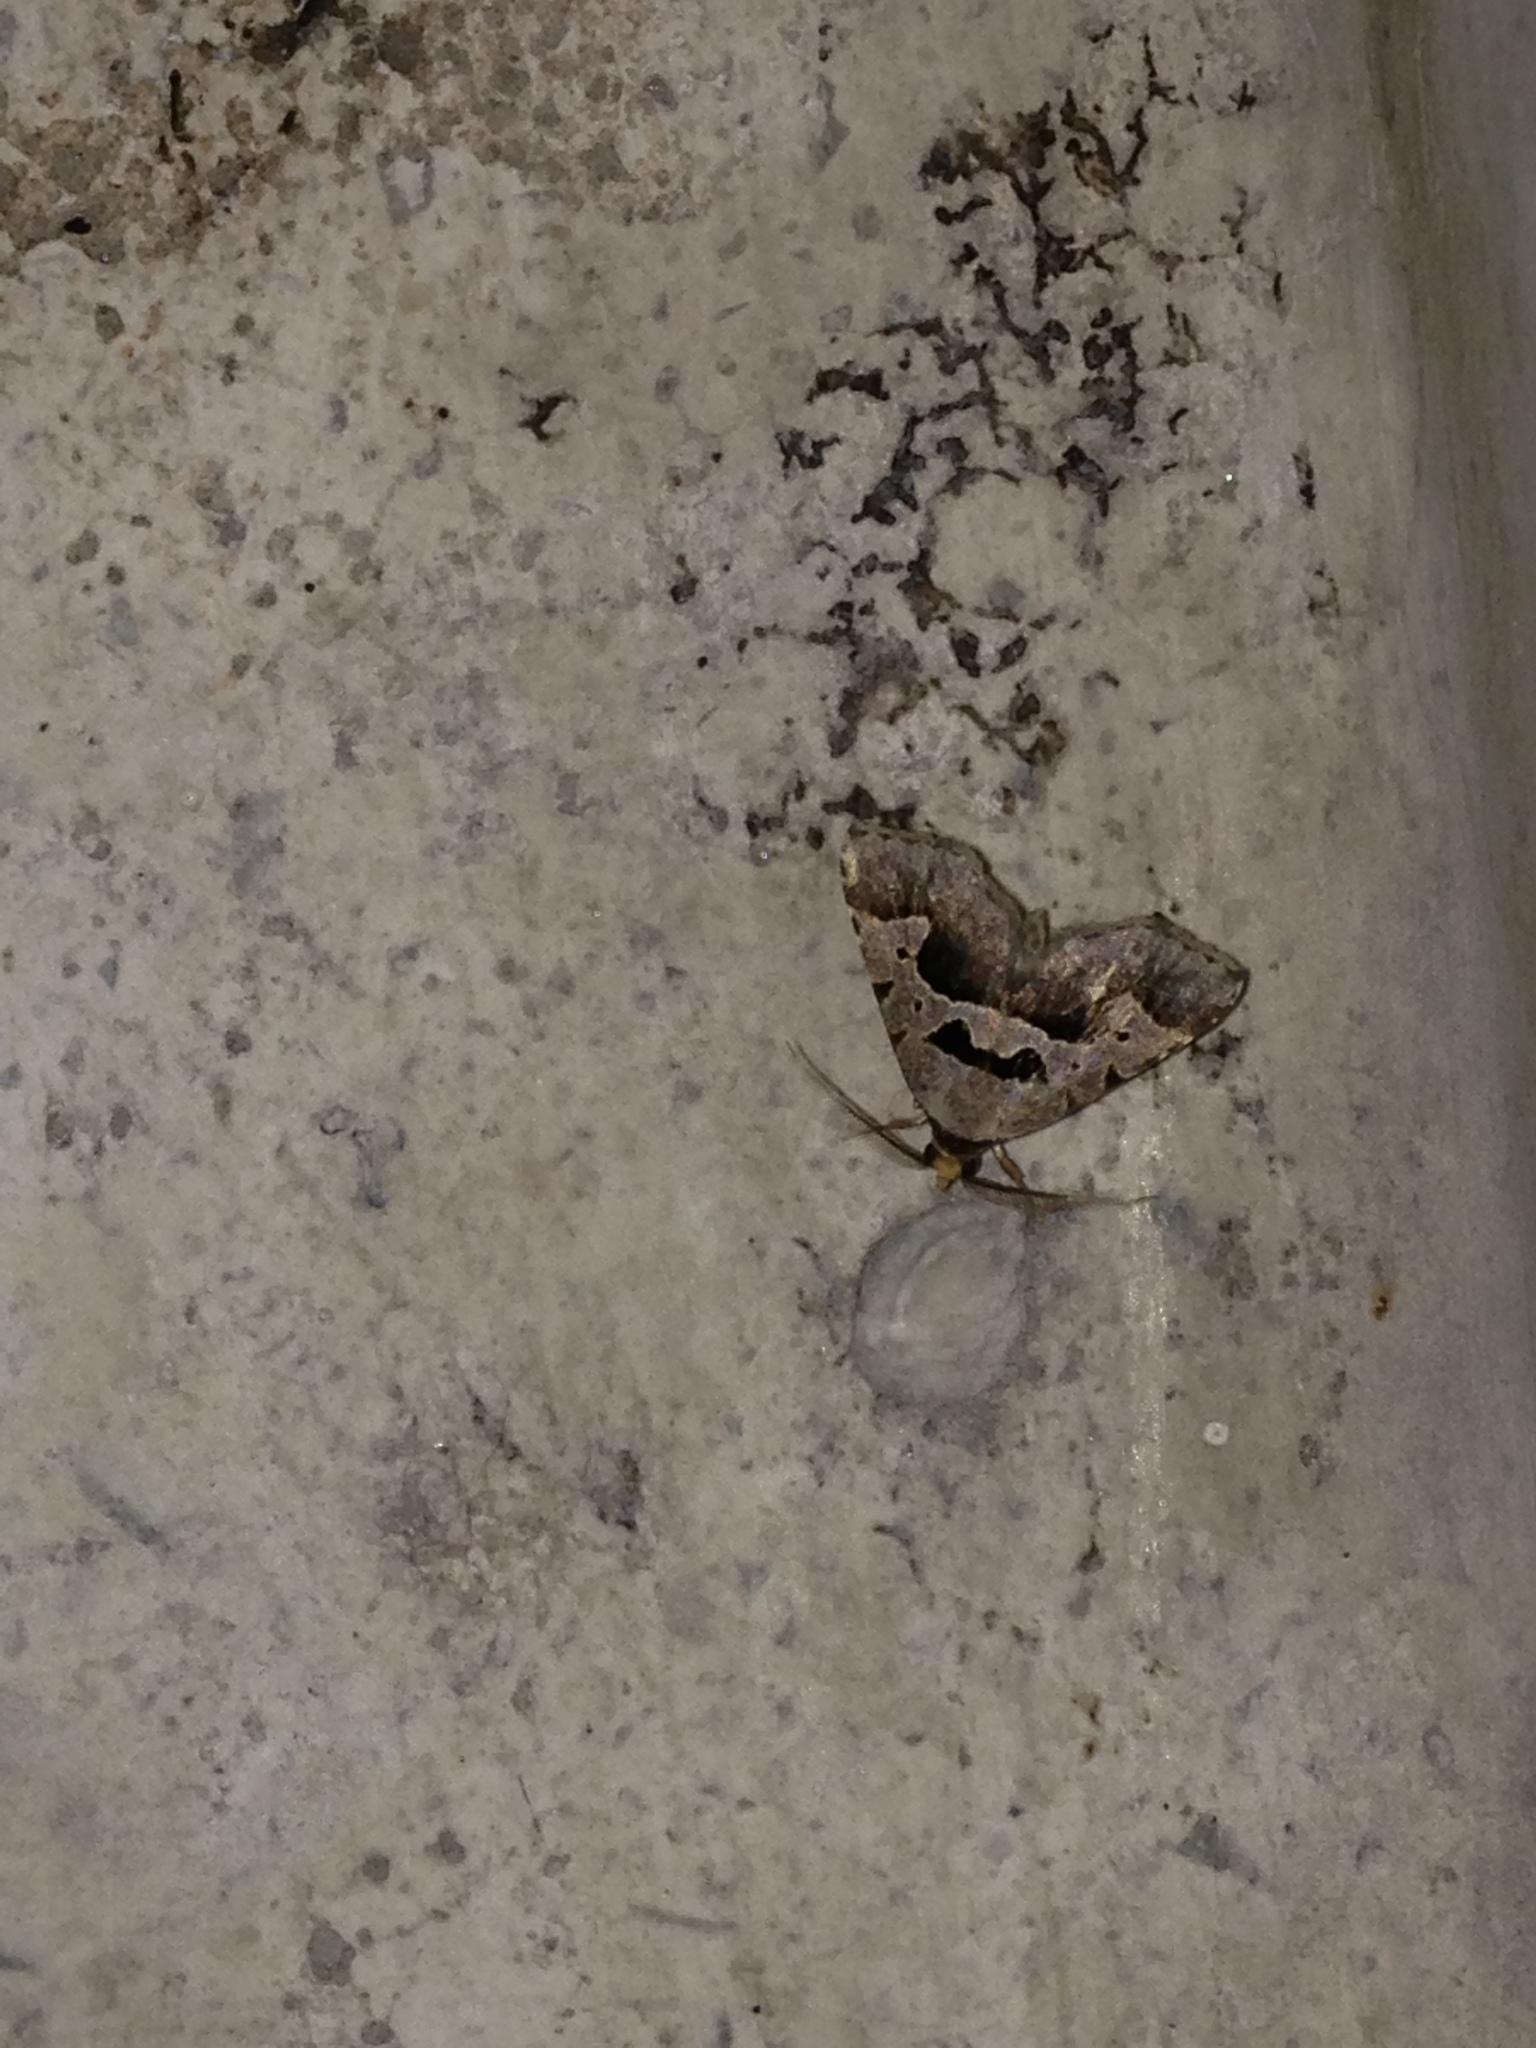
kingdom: Animalia
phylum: Arthropoda
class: Insecta
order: Lepidoptera
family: Erebidae
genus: Baniana
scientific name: Baniana minor
